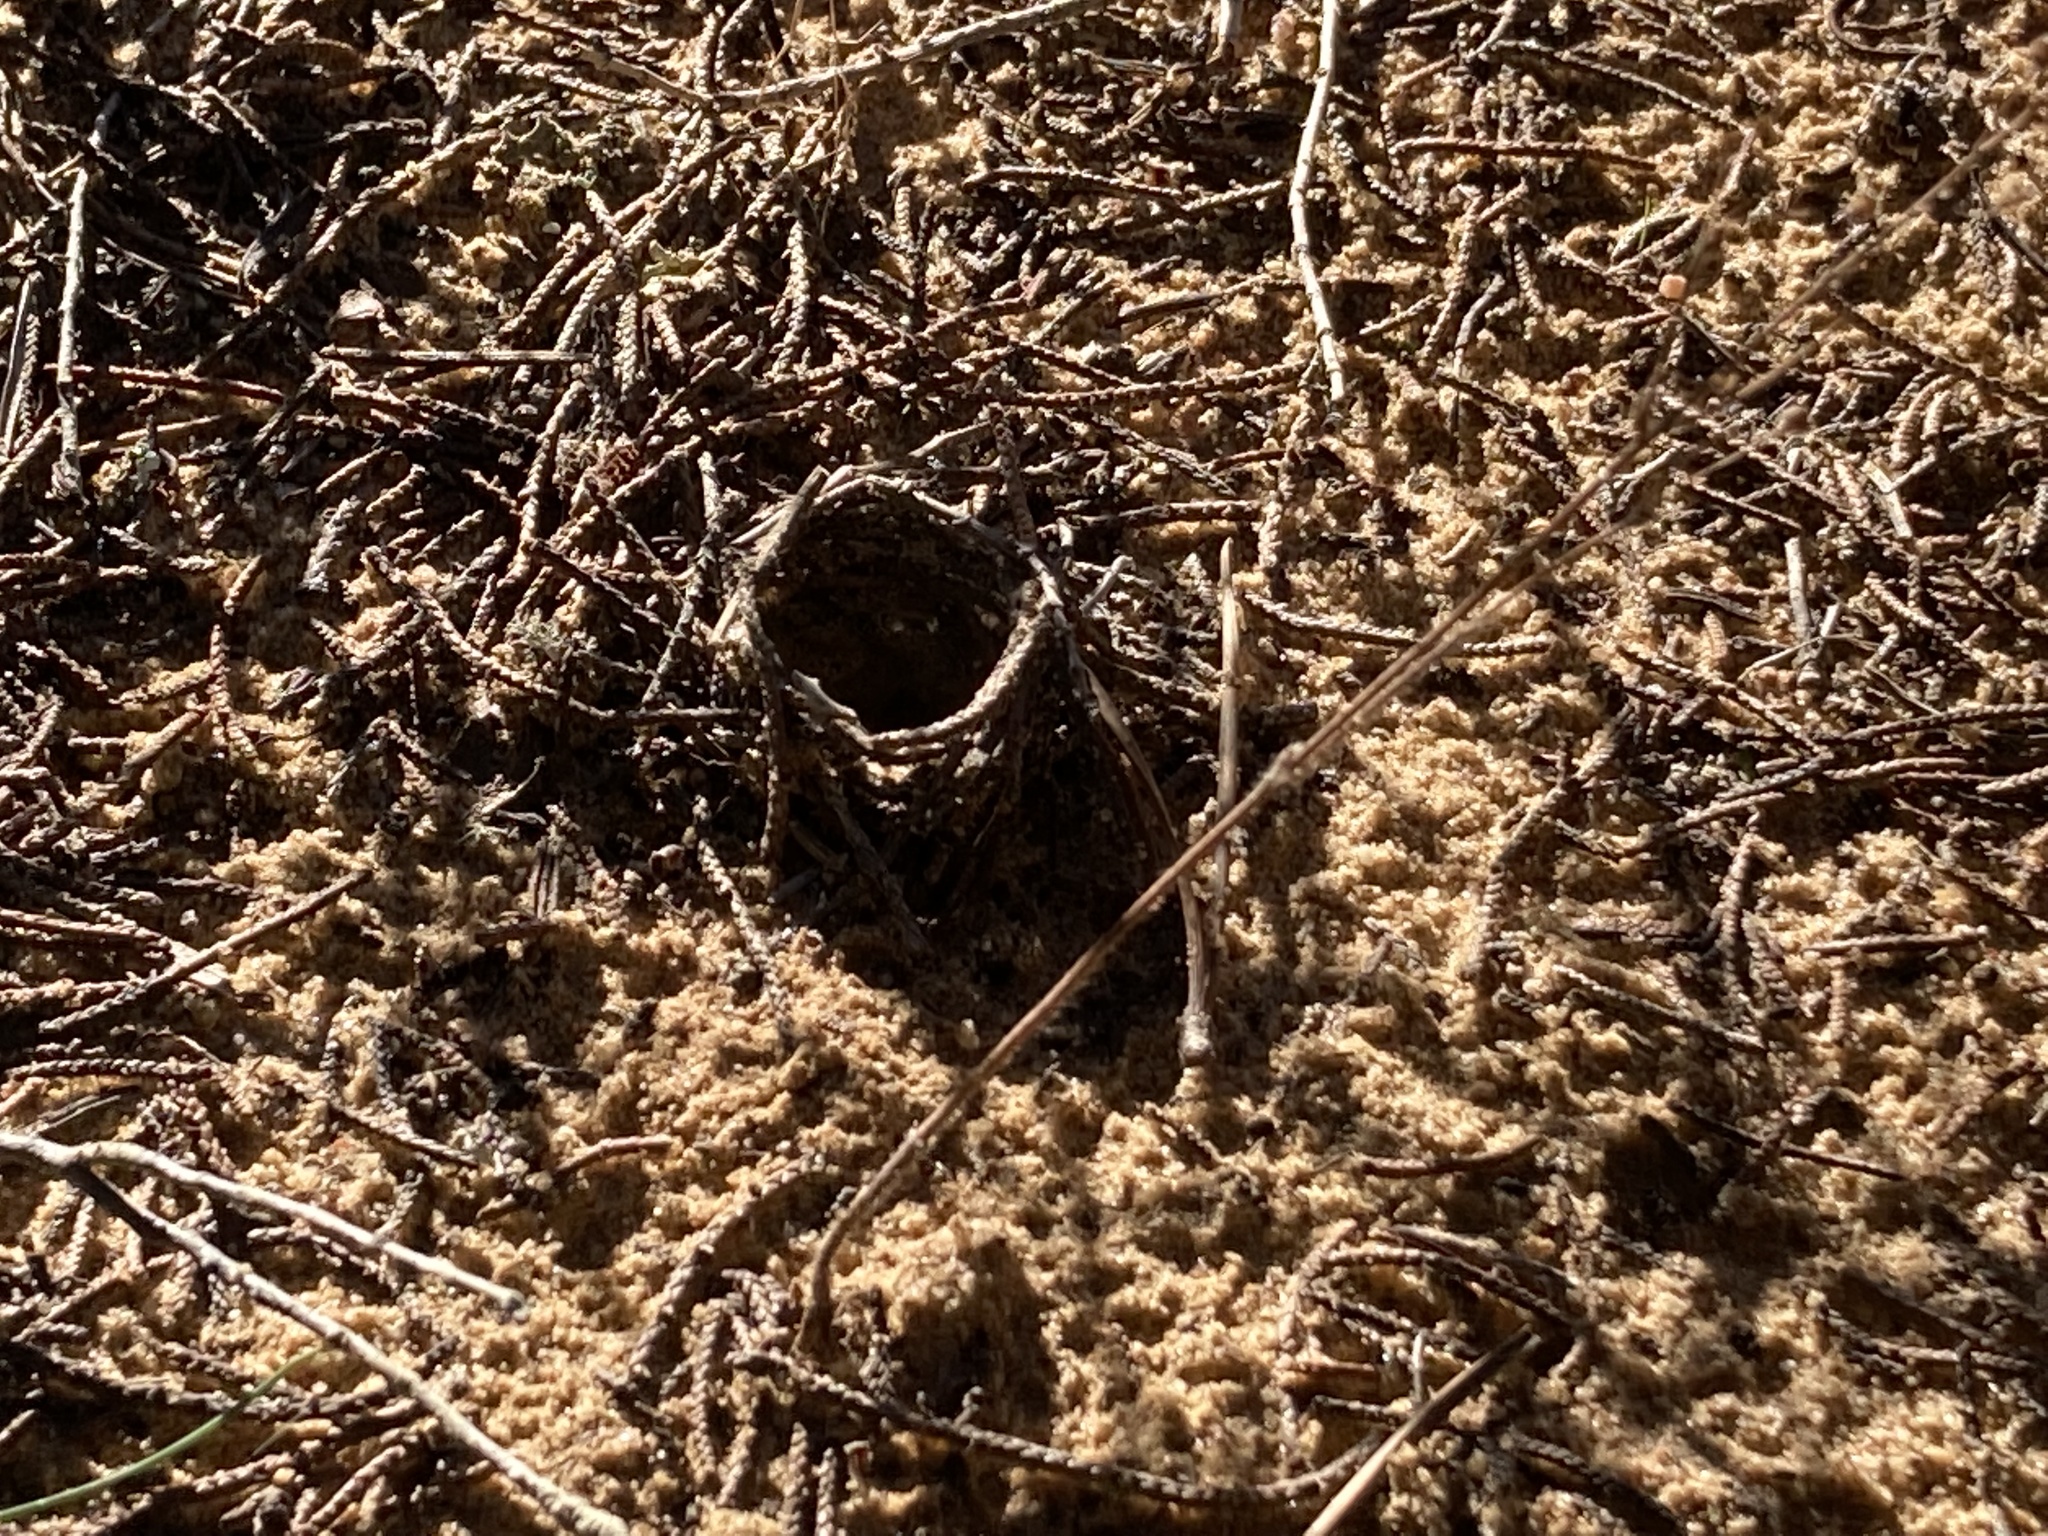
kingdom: Animalia
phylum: Arthropoda
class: Arachnida
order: Araneae
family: Lycosidae
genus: Donacosa
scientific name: Donacosa merlini
